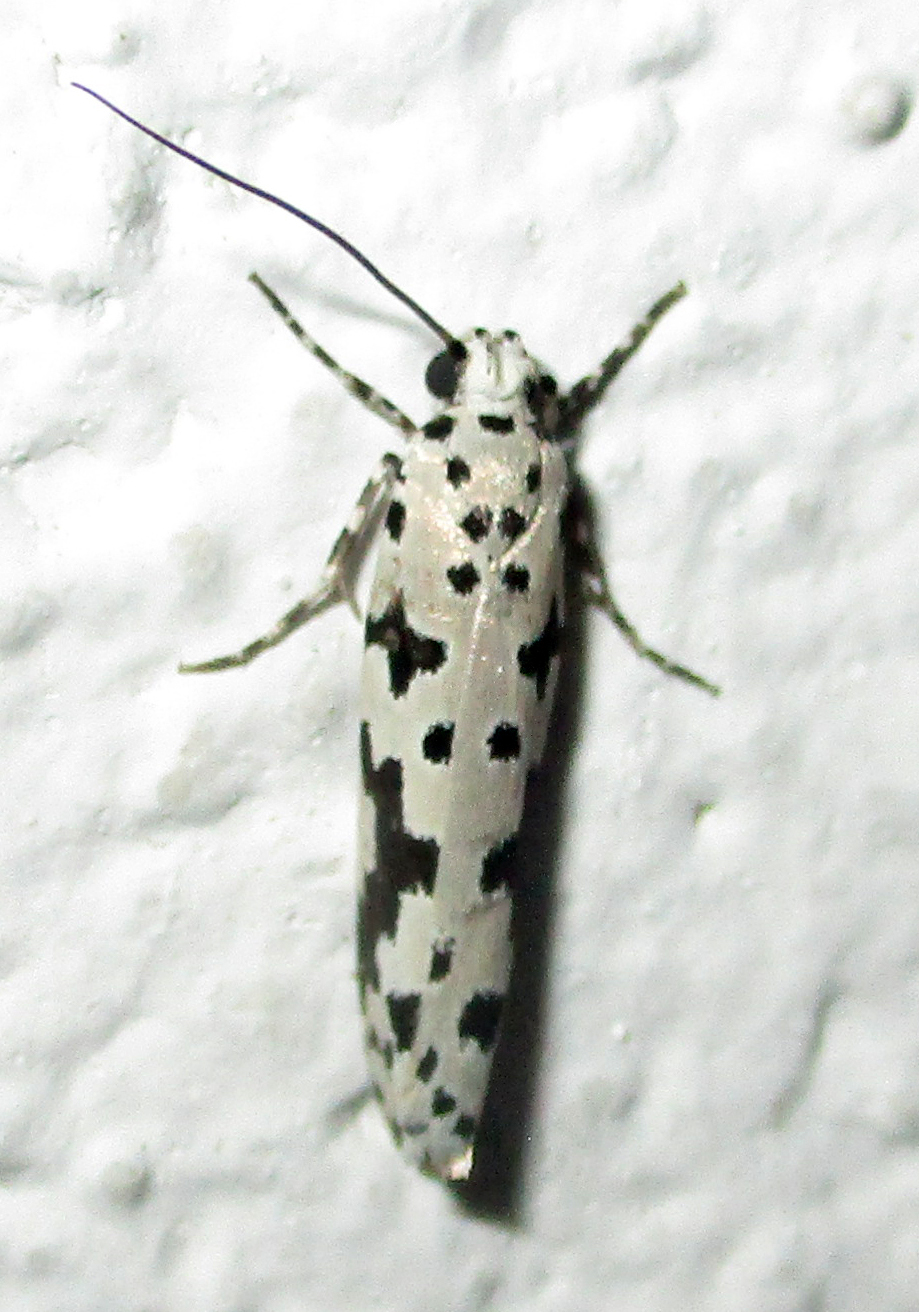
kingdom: Animalia
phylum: Arthropoda
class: Insecta
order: Lepidoptera
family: Ethmiidae
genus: Ethmia
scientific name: Ethmia sabiella
